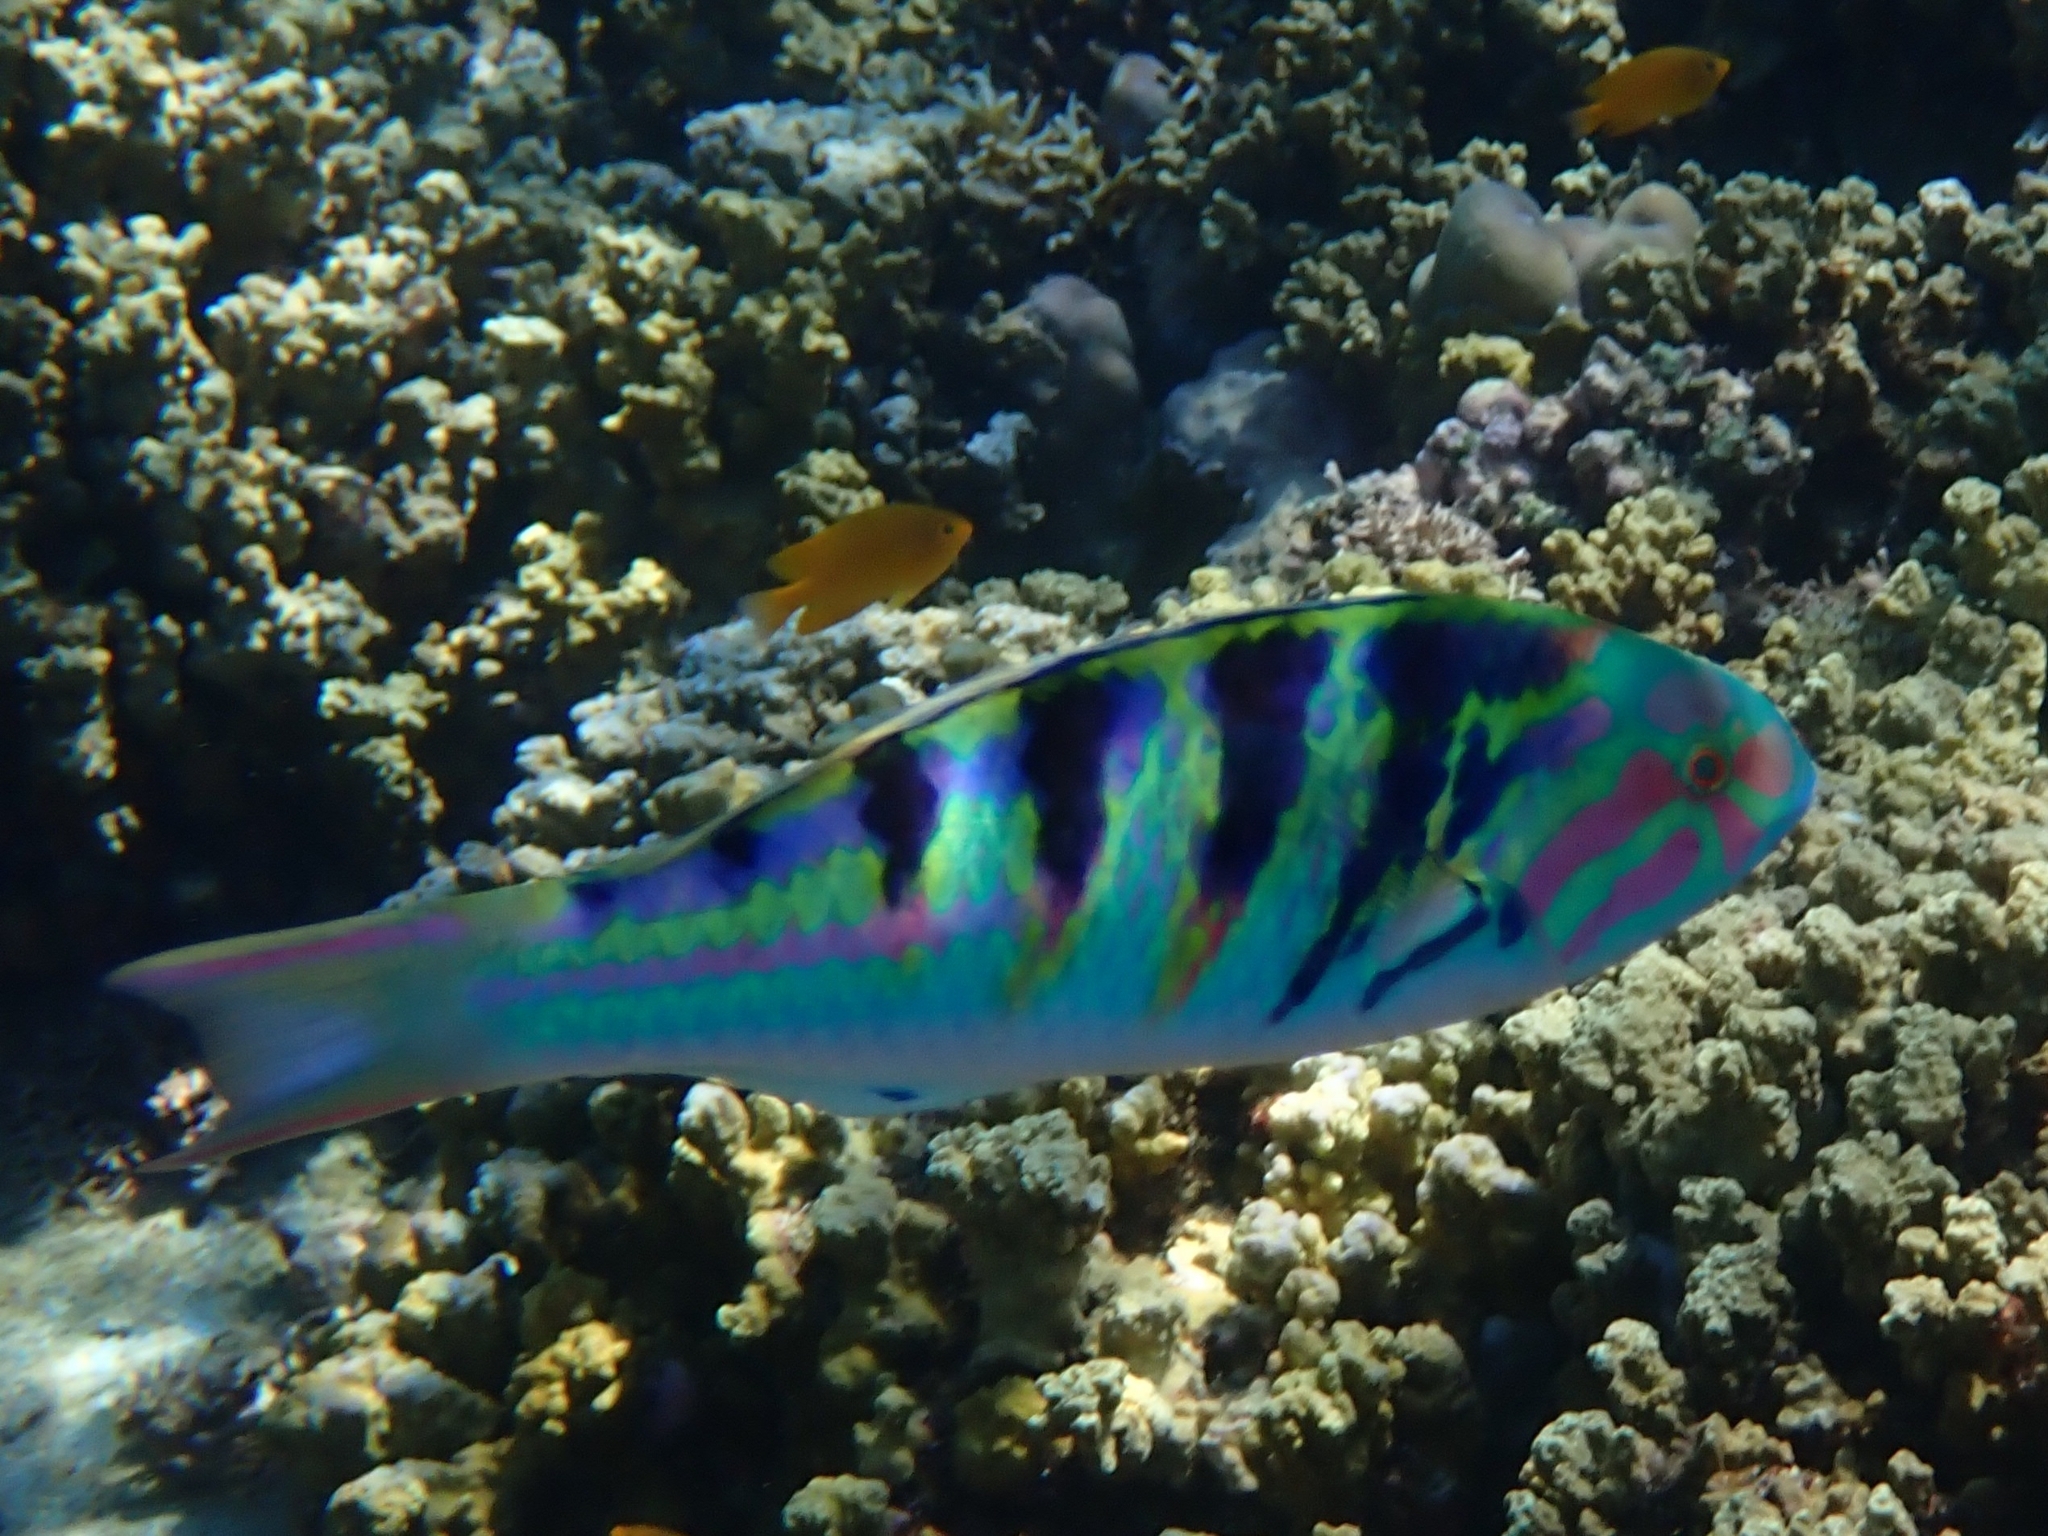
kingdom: Animalia
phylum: Chordata
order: Perciformes
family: Labridae
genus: Thalassoma
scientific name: Thalassoma hardwicke
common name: Sixbar wrasse
